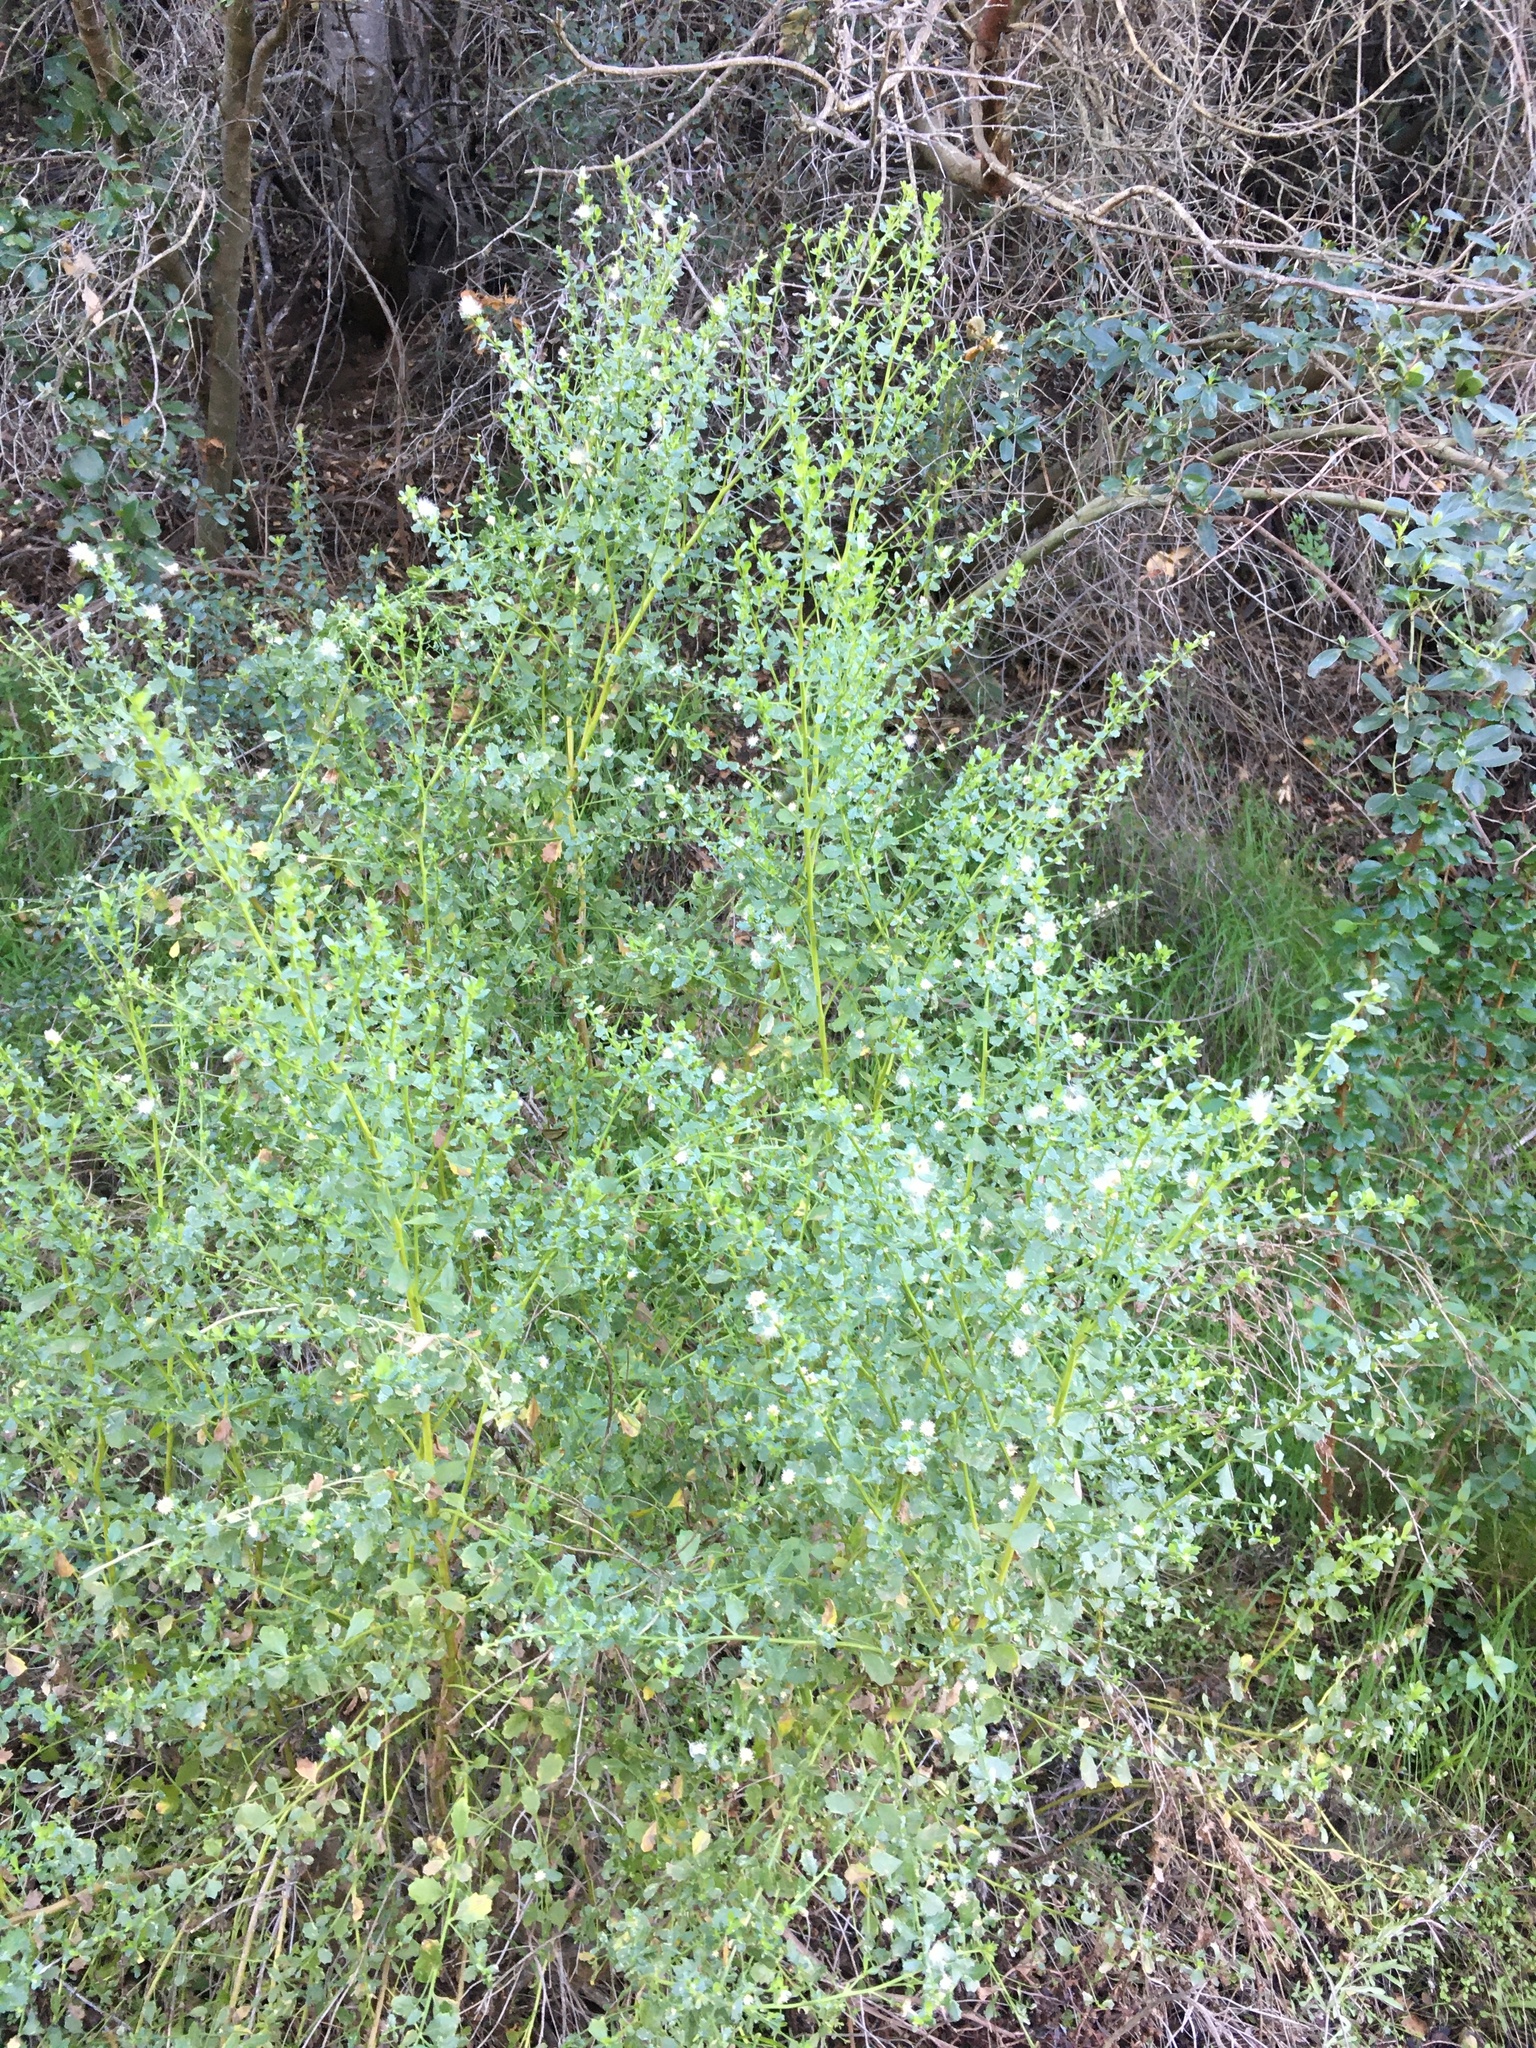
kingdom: Plantae
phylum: Tracheophyta
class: Magnoliopsida
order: Asterales
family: Asteraceae
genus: Baccharis
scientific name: Baccharis pilularis
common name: Coyotebrush
